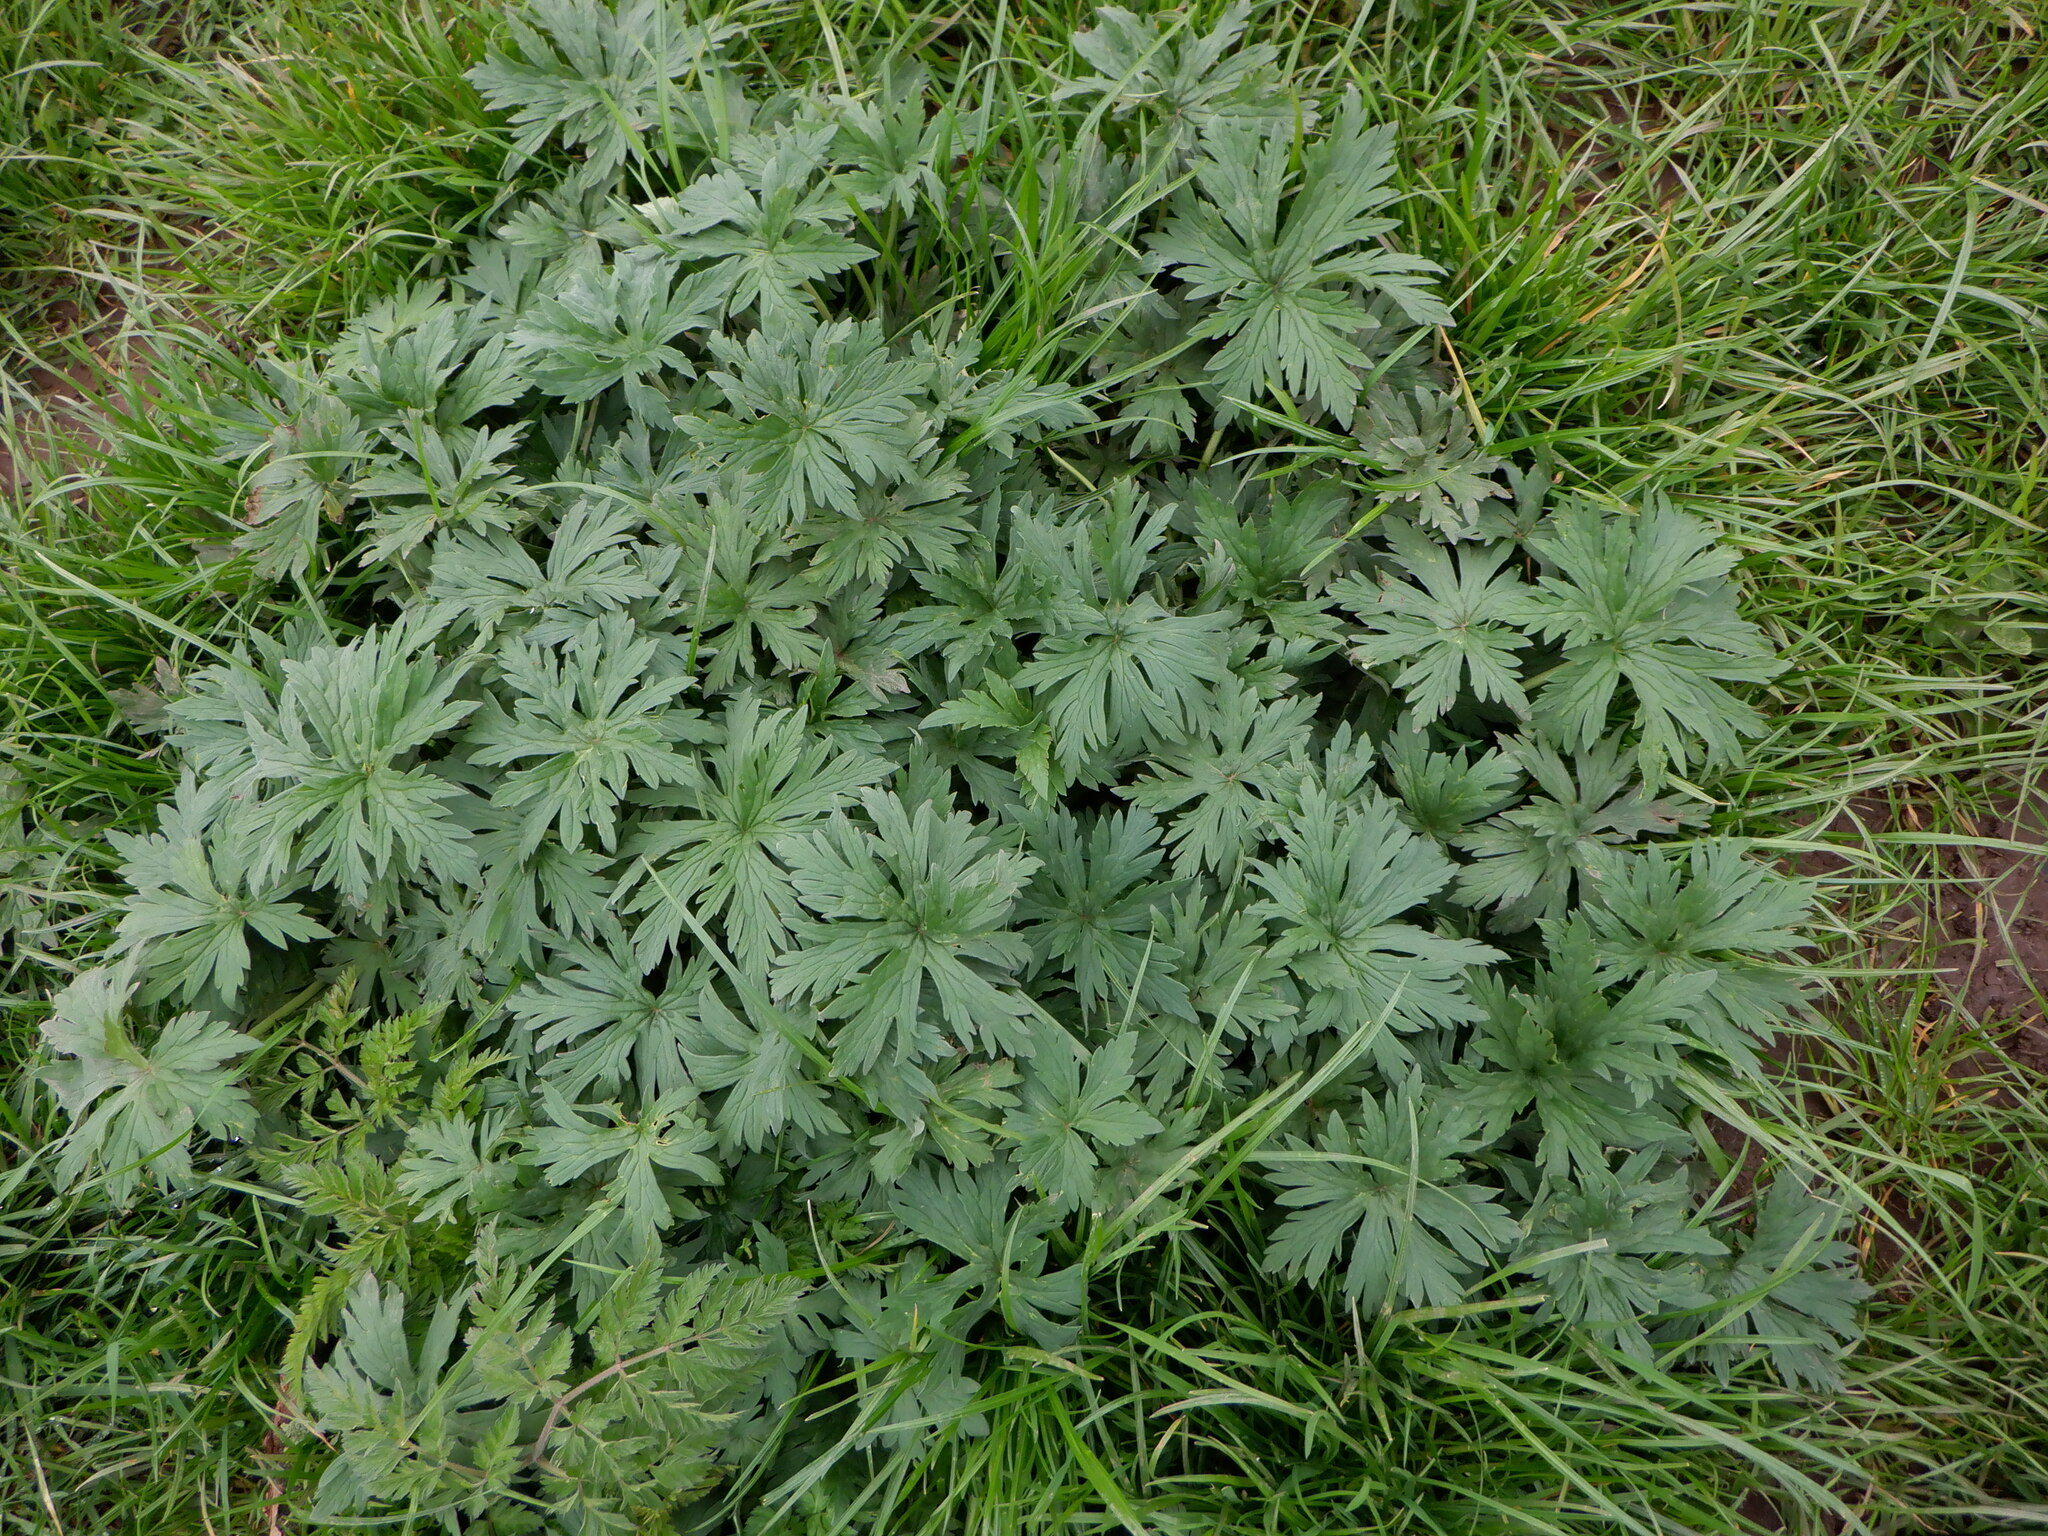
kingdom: Plantae
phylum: Tracheophyta
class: Magnoliopsida
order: Geraniales
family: Geraniaceae
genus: Geranium
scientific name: Geranium pratense
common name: Meadow crane's-bill
